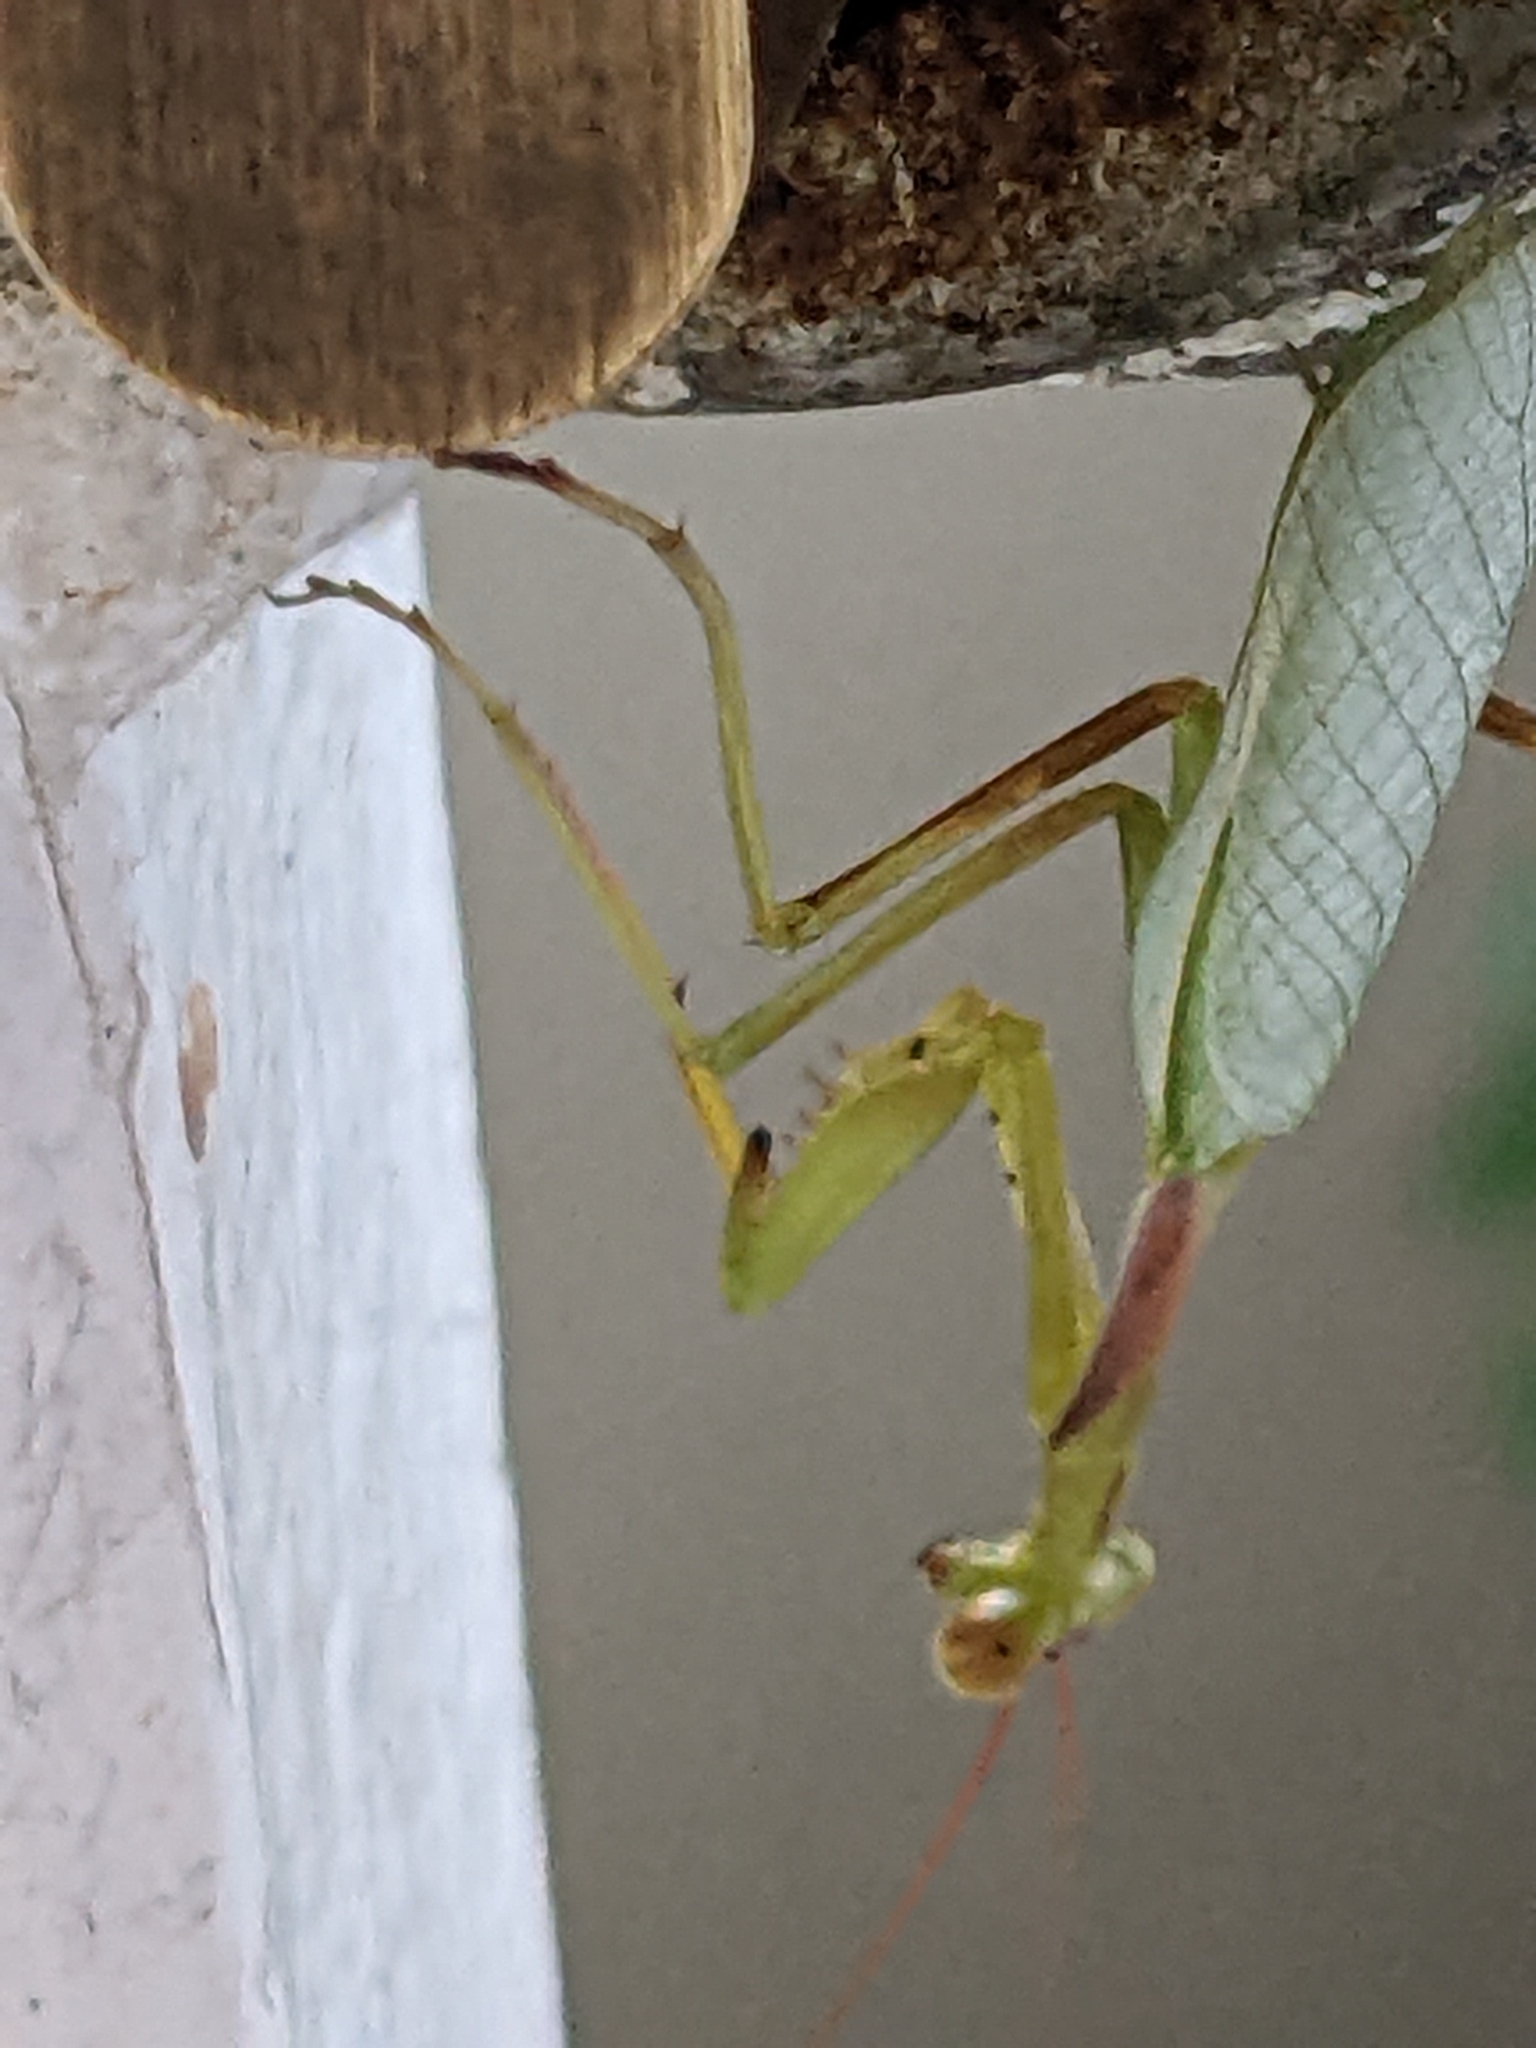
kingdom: Animalia
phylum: Arthropoda
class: Insecta
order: Mantodea
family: Miomantidae
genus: Miomantis
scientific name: Miomantis caffra
